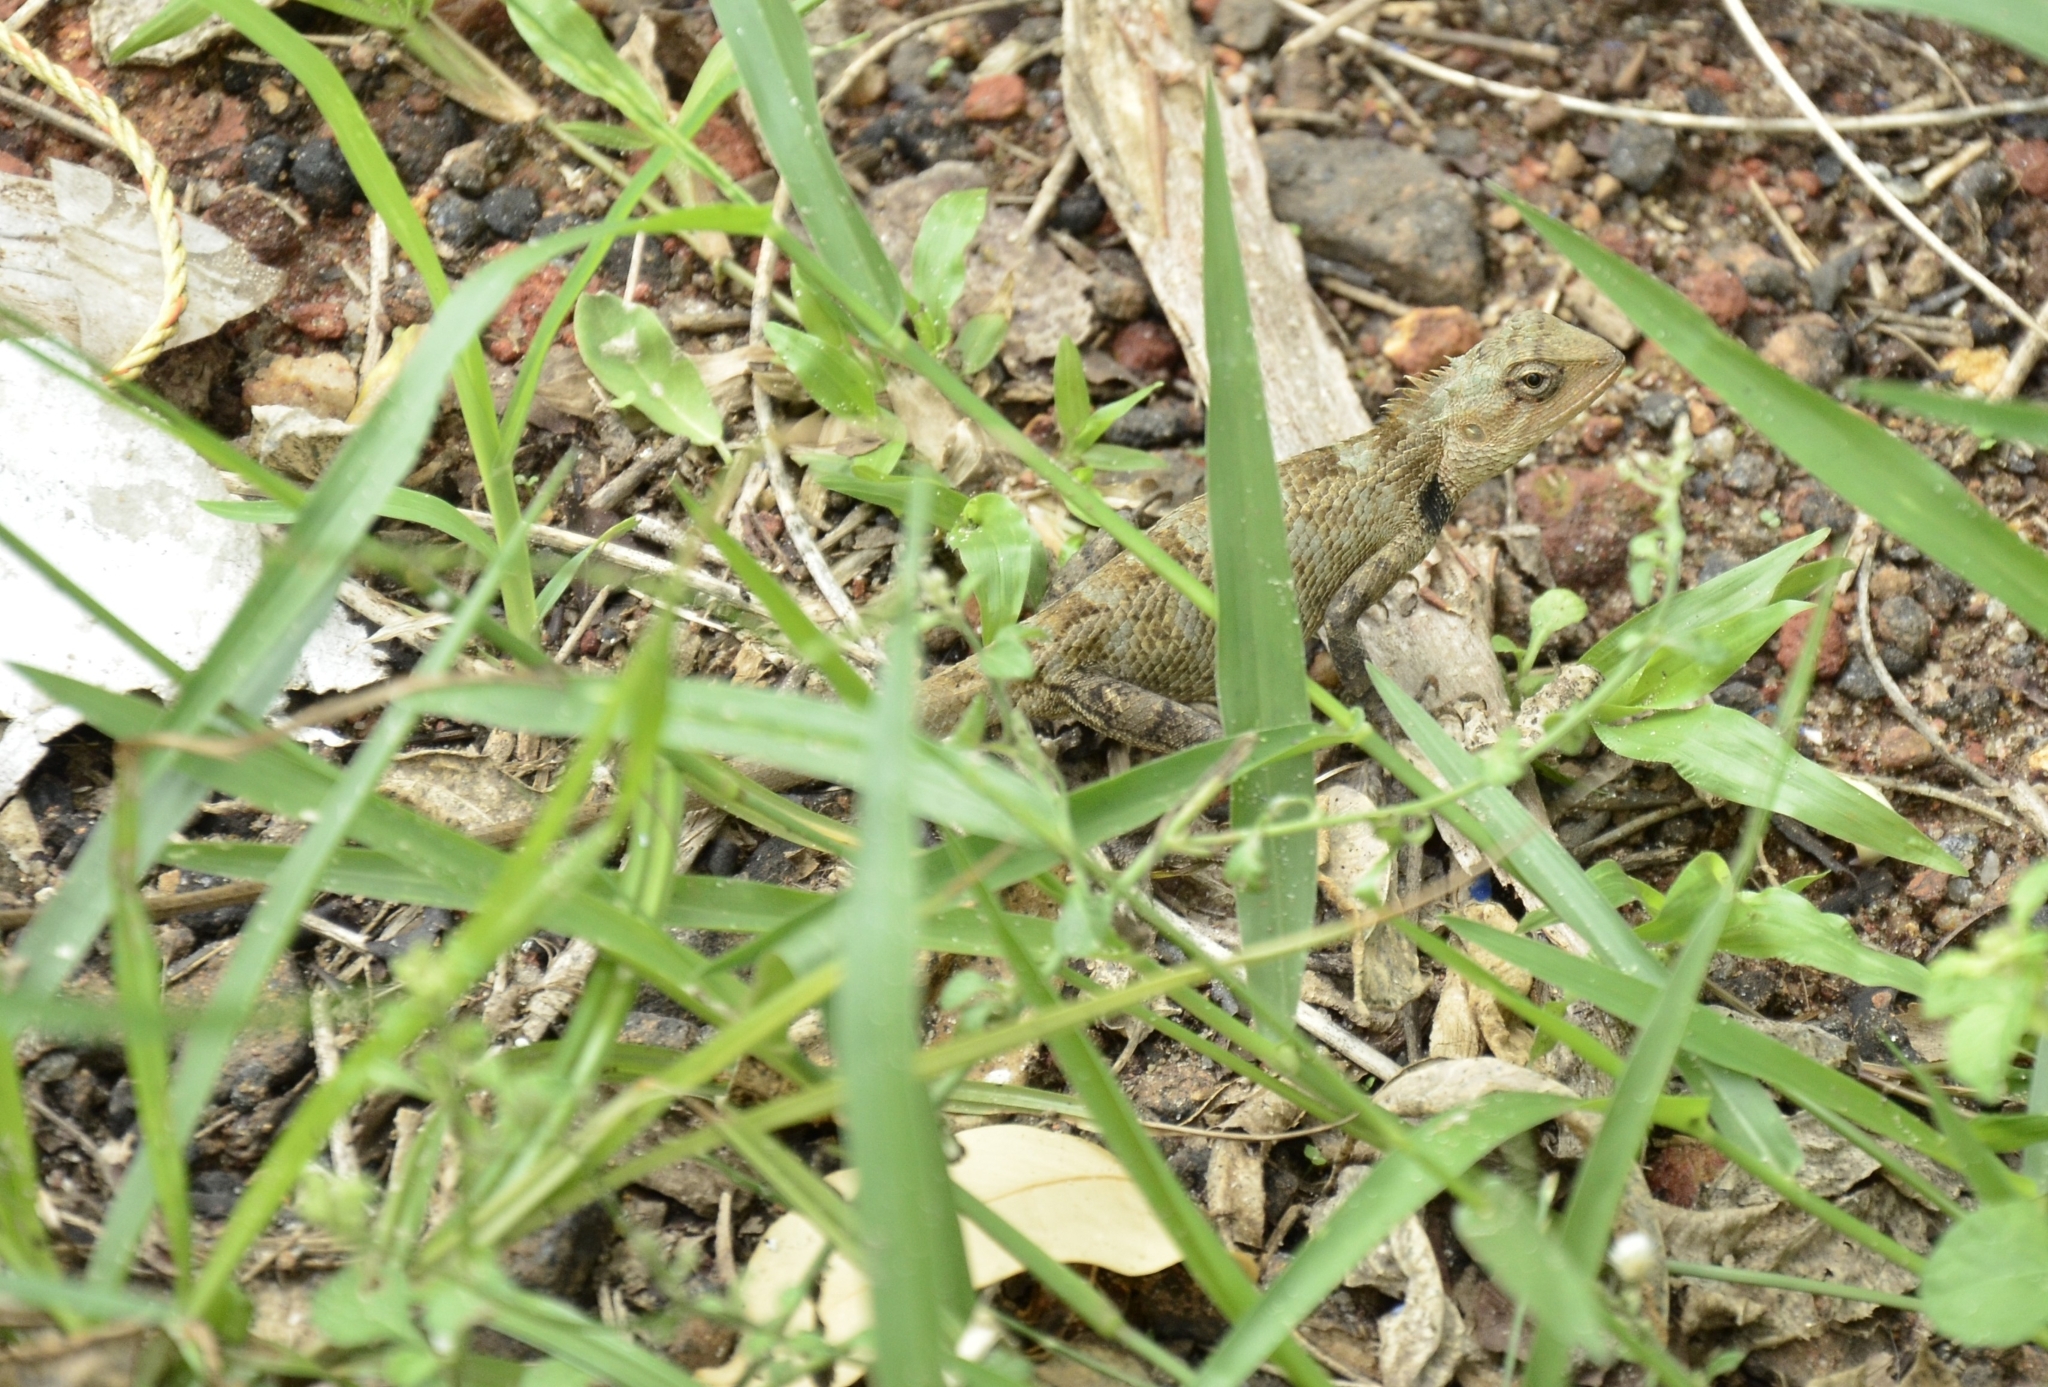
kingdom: Animalia
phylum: Chordata
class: Squamata
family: Agamidae
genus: Calotes
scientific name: Calotes versicolor
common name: Oriental garden lizard
